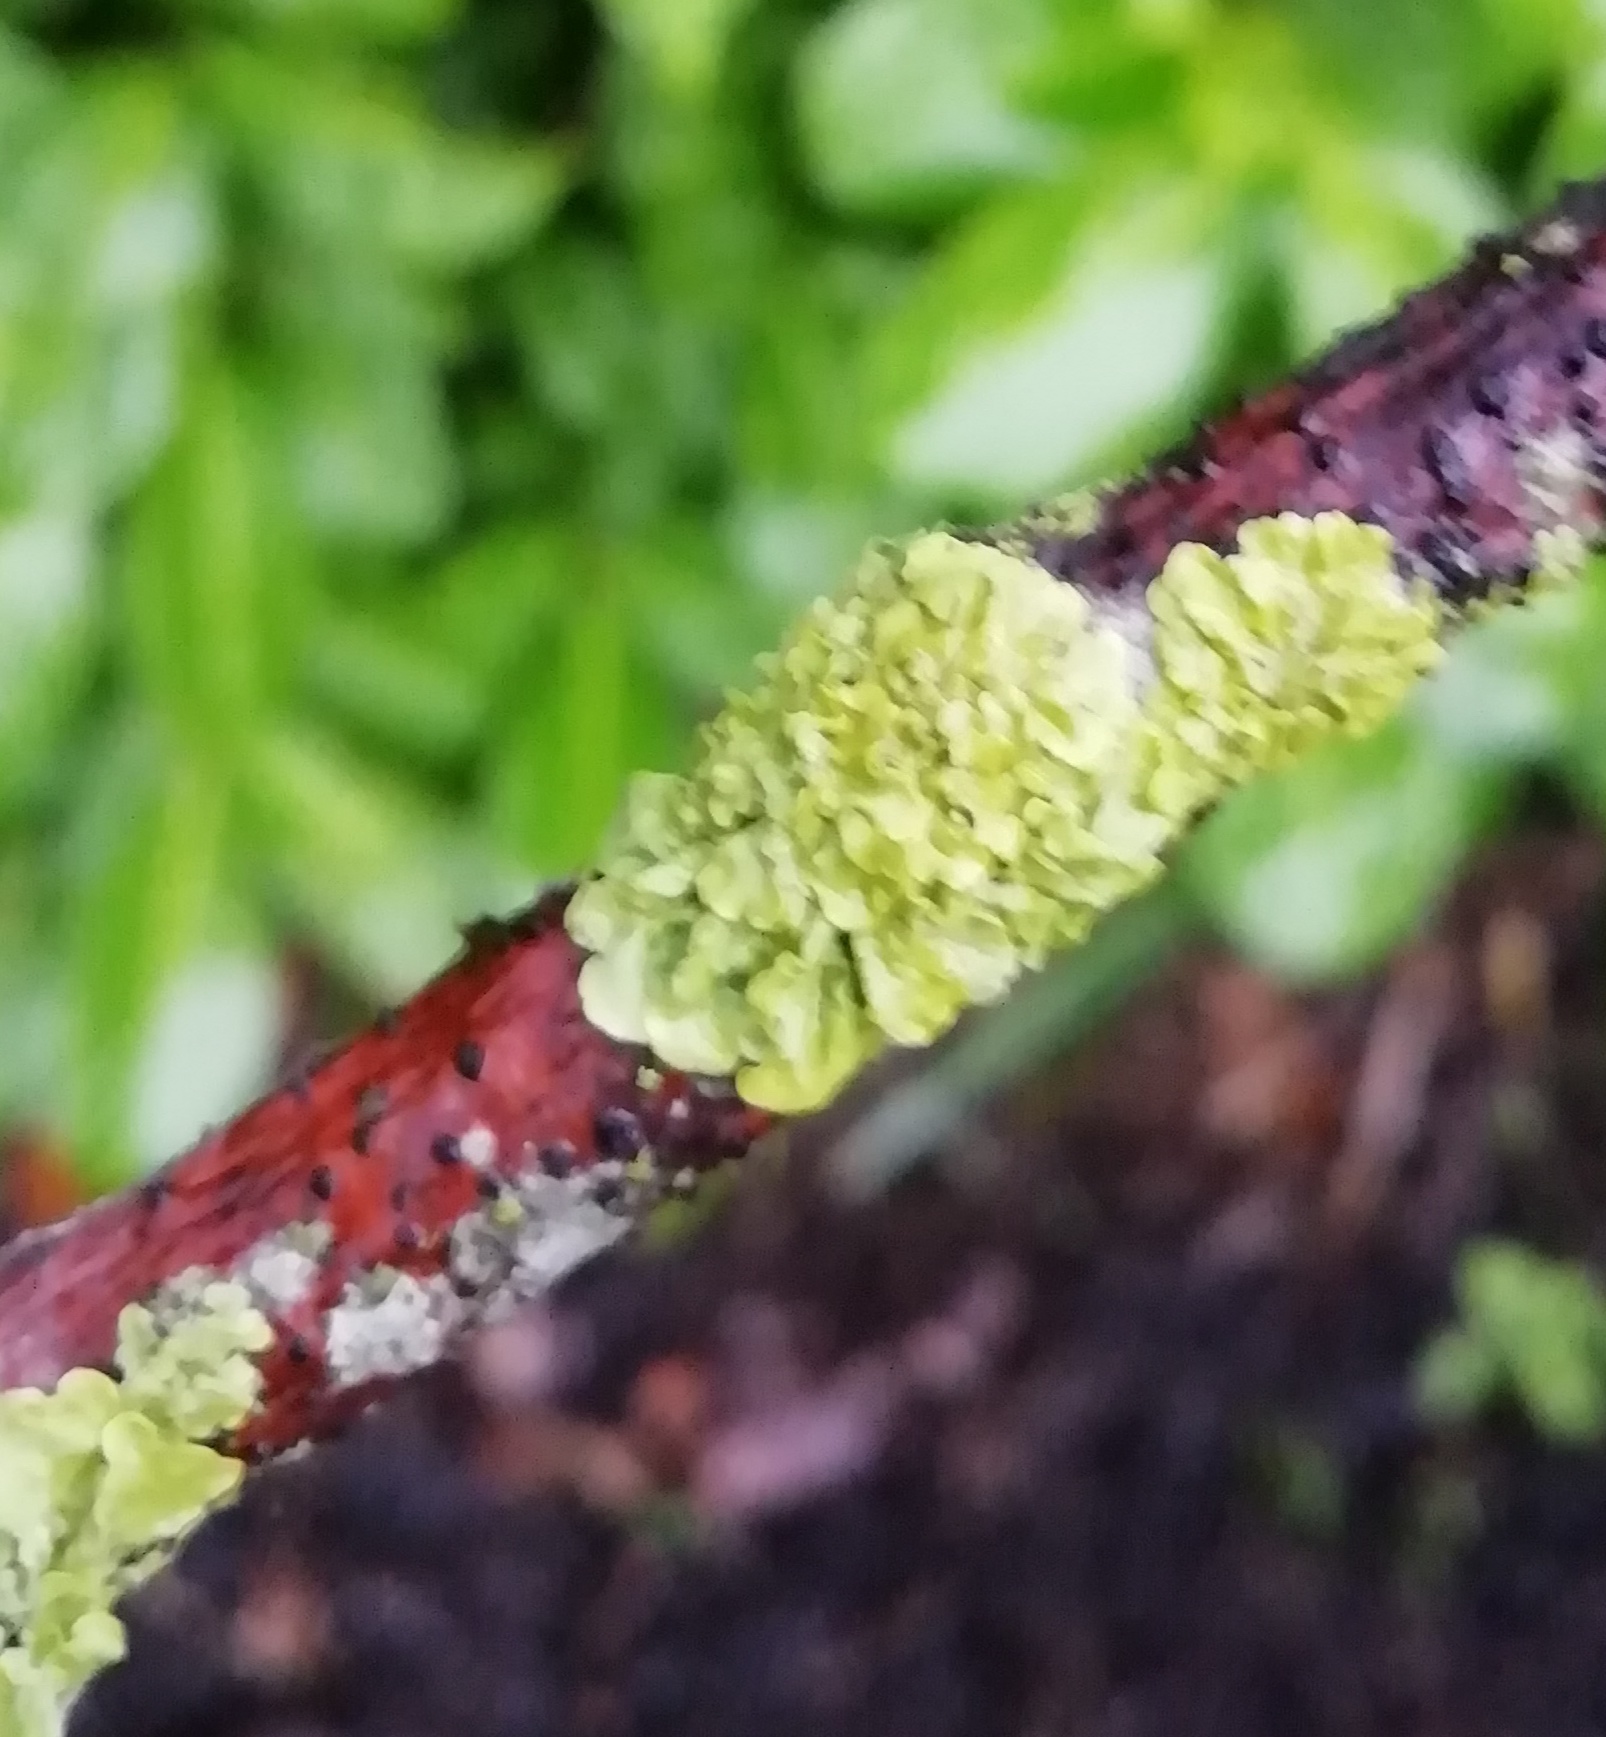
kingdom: Fungi
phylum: Ascomycota
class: Lecanoromycetes
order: Teloschistales
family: Teloschistaceae
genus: Xanthoria
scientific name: Xanthoria parietina
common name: Common orange lichen
